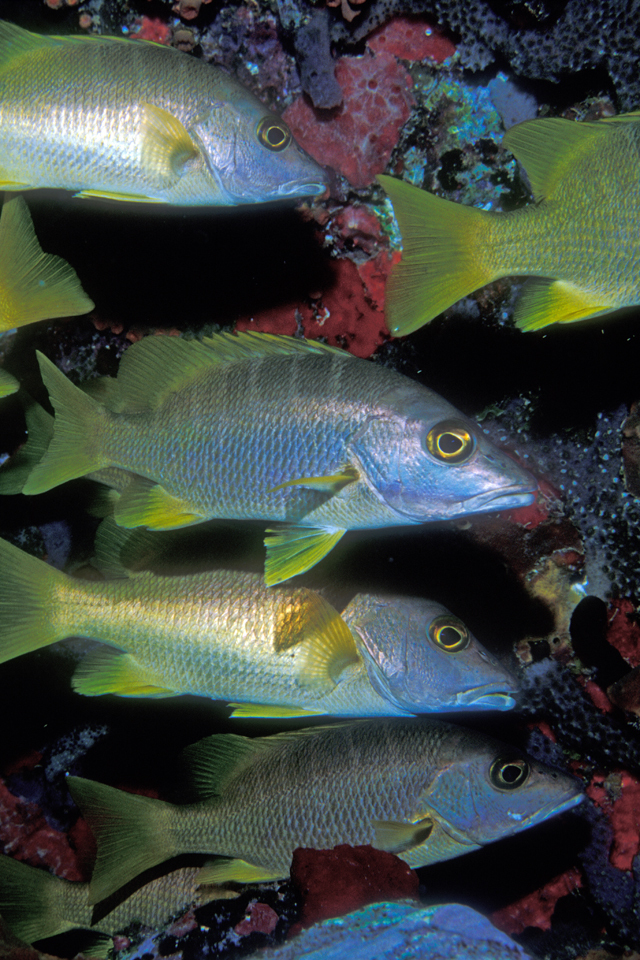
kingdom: Animalia
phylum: Chordata
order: Perciformes
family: Lutjanidae
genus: Lutjanus
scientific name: Lutjanus apodus
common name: Schoolmaster
